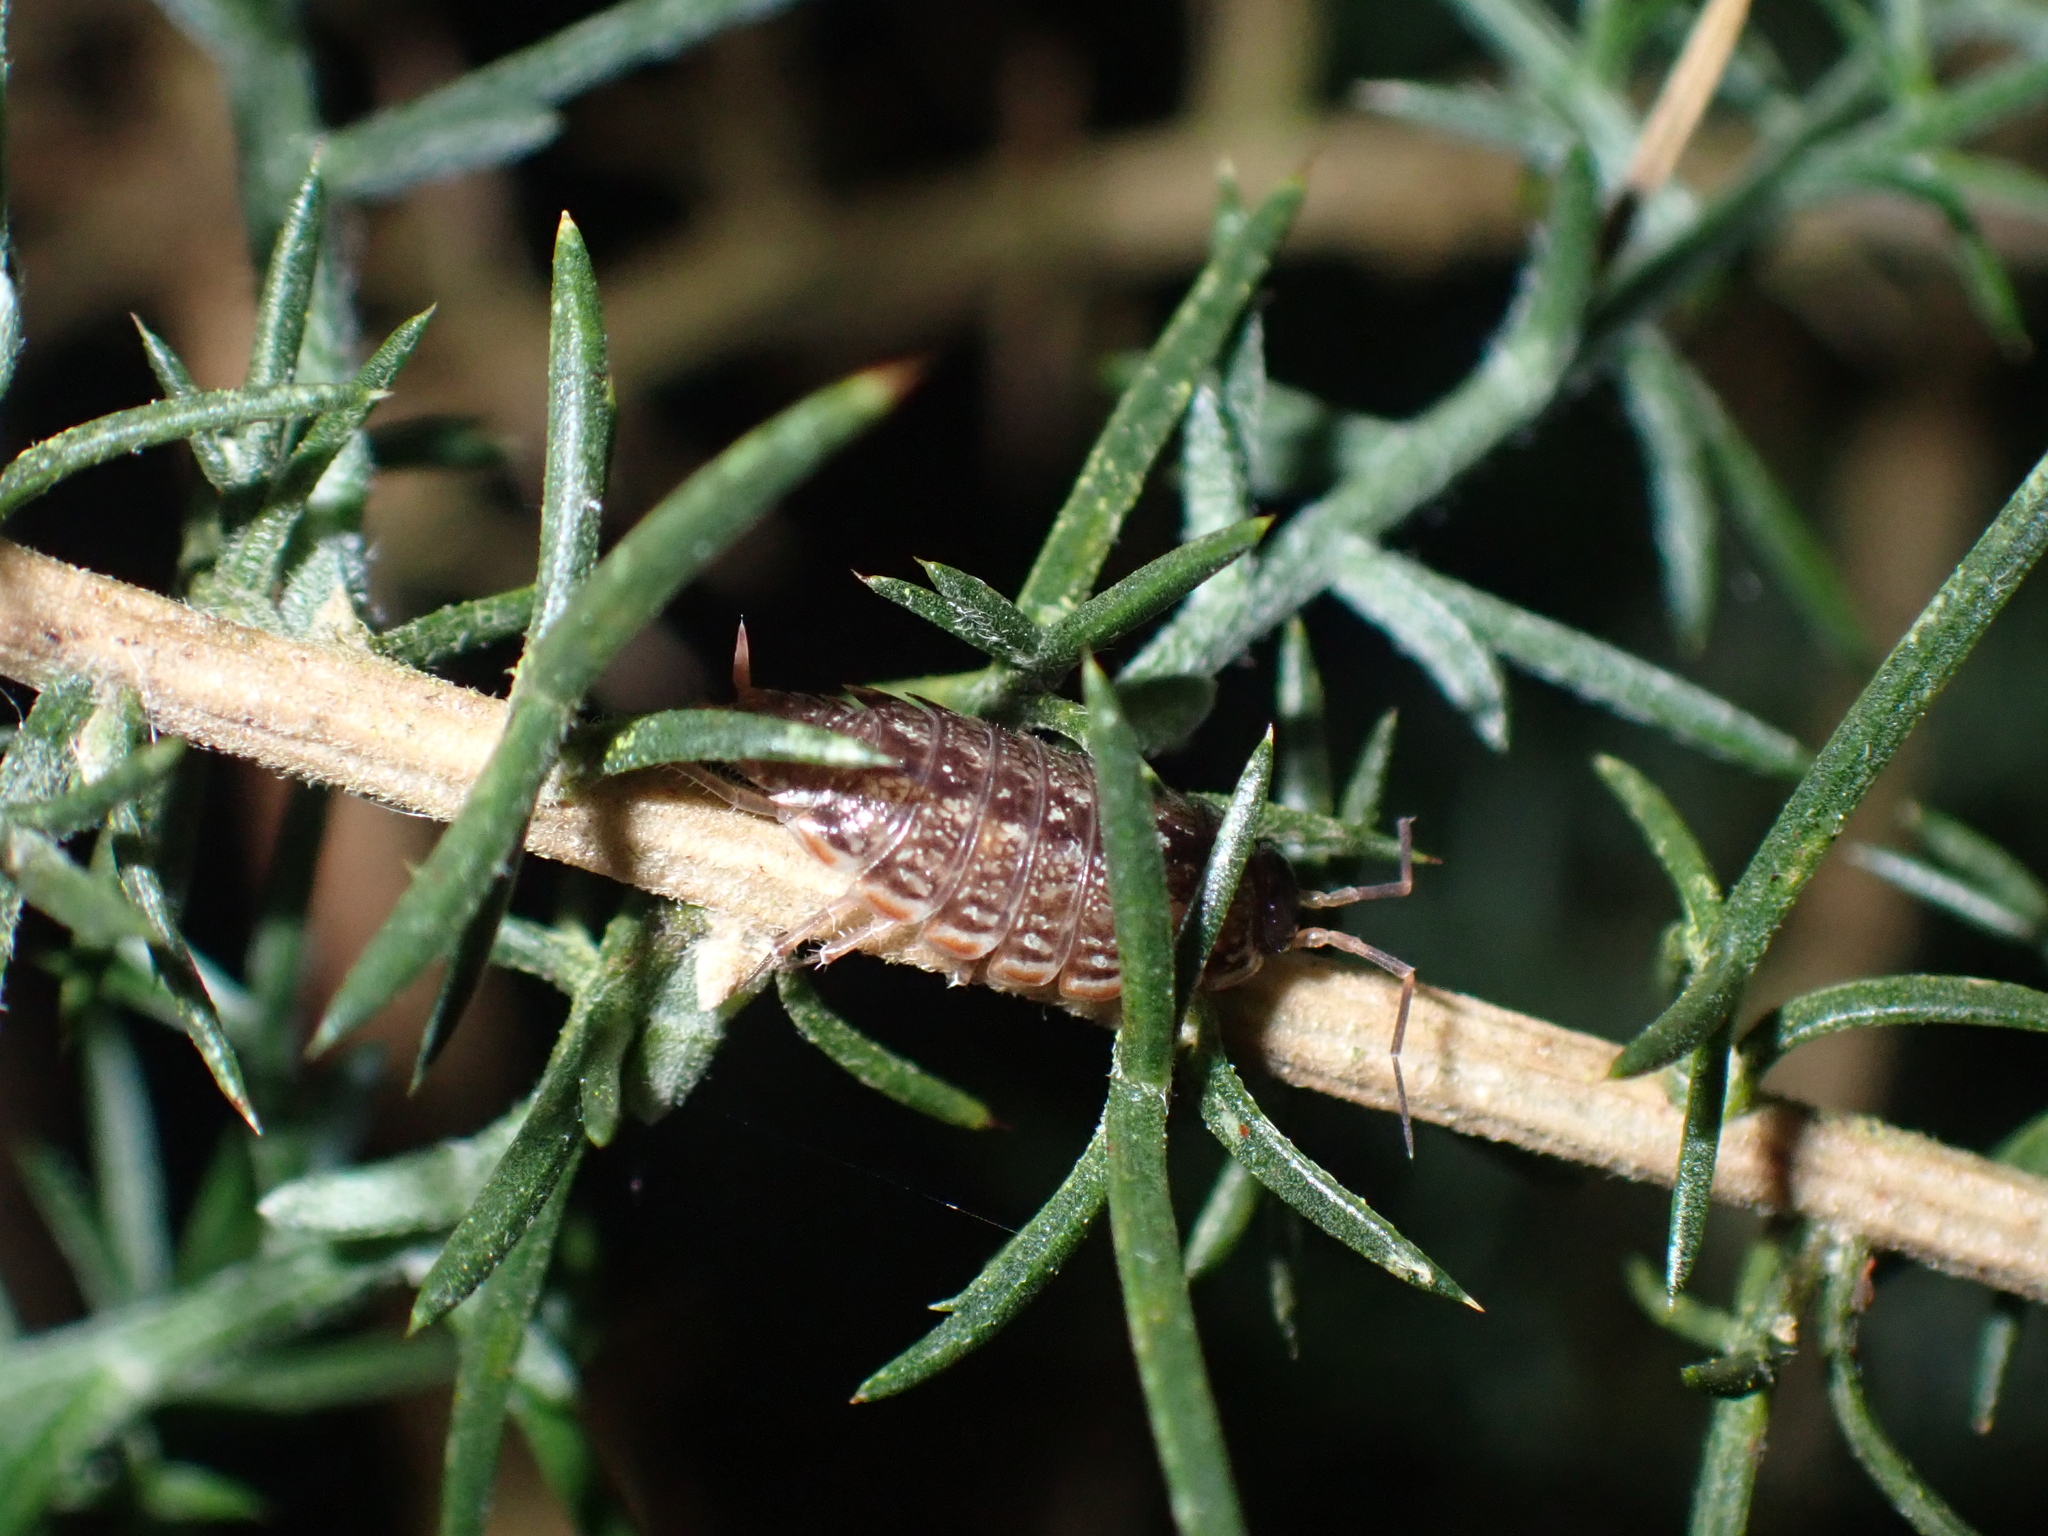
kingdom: Animalia
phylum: Arthropoda
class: Malacostraca
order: Isopoda
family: Philosciidae
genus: Philoscia
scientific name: Philoscia muscorum
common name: Common striped woodlouse
